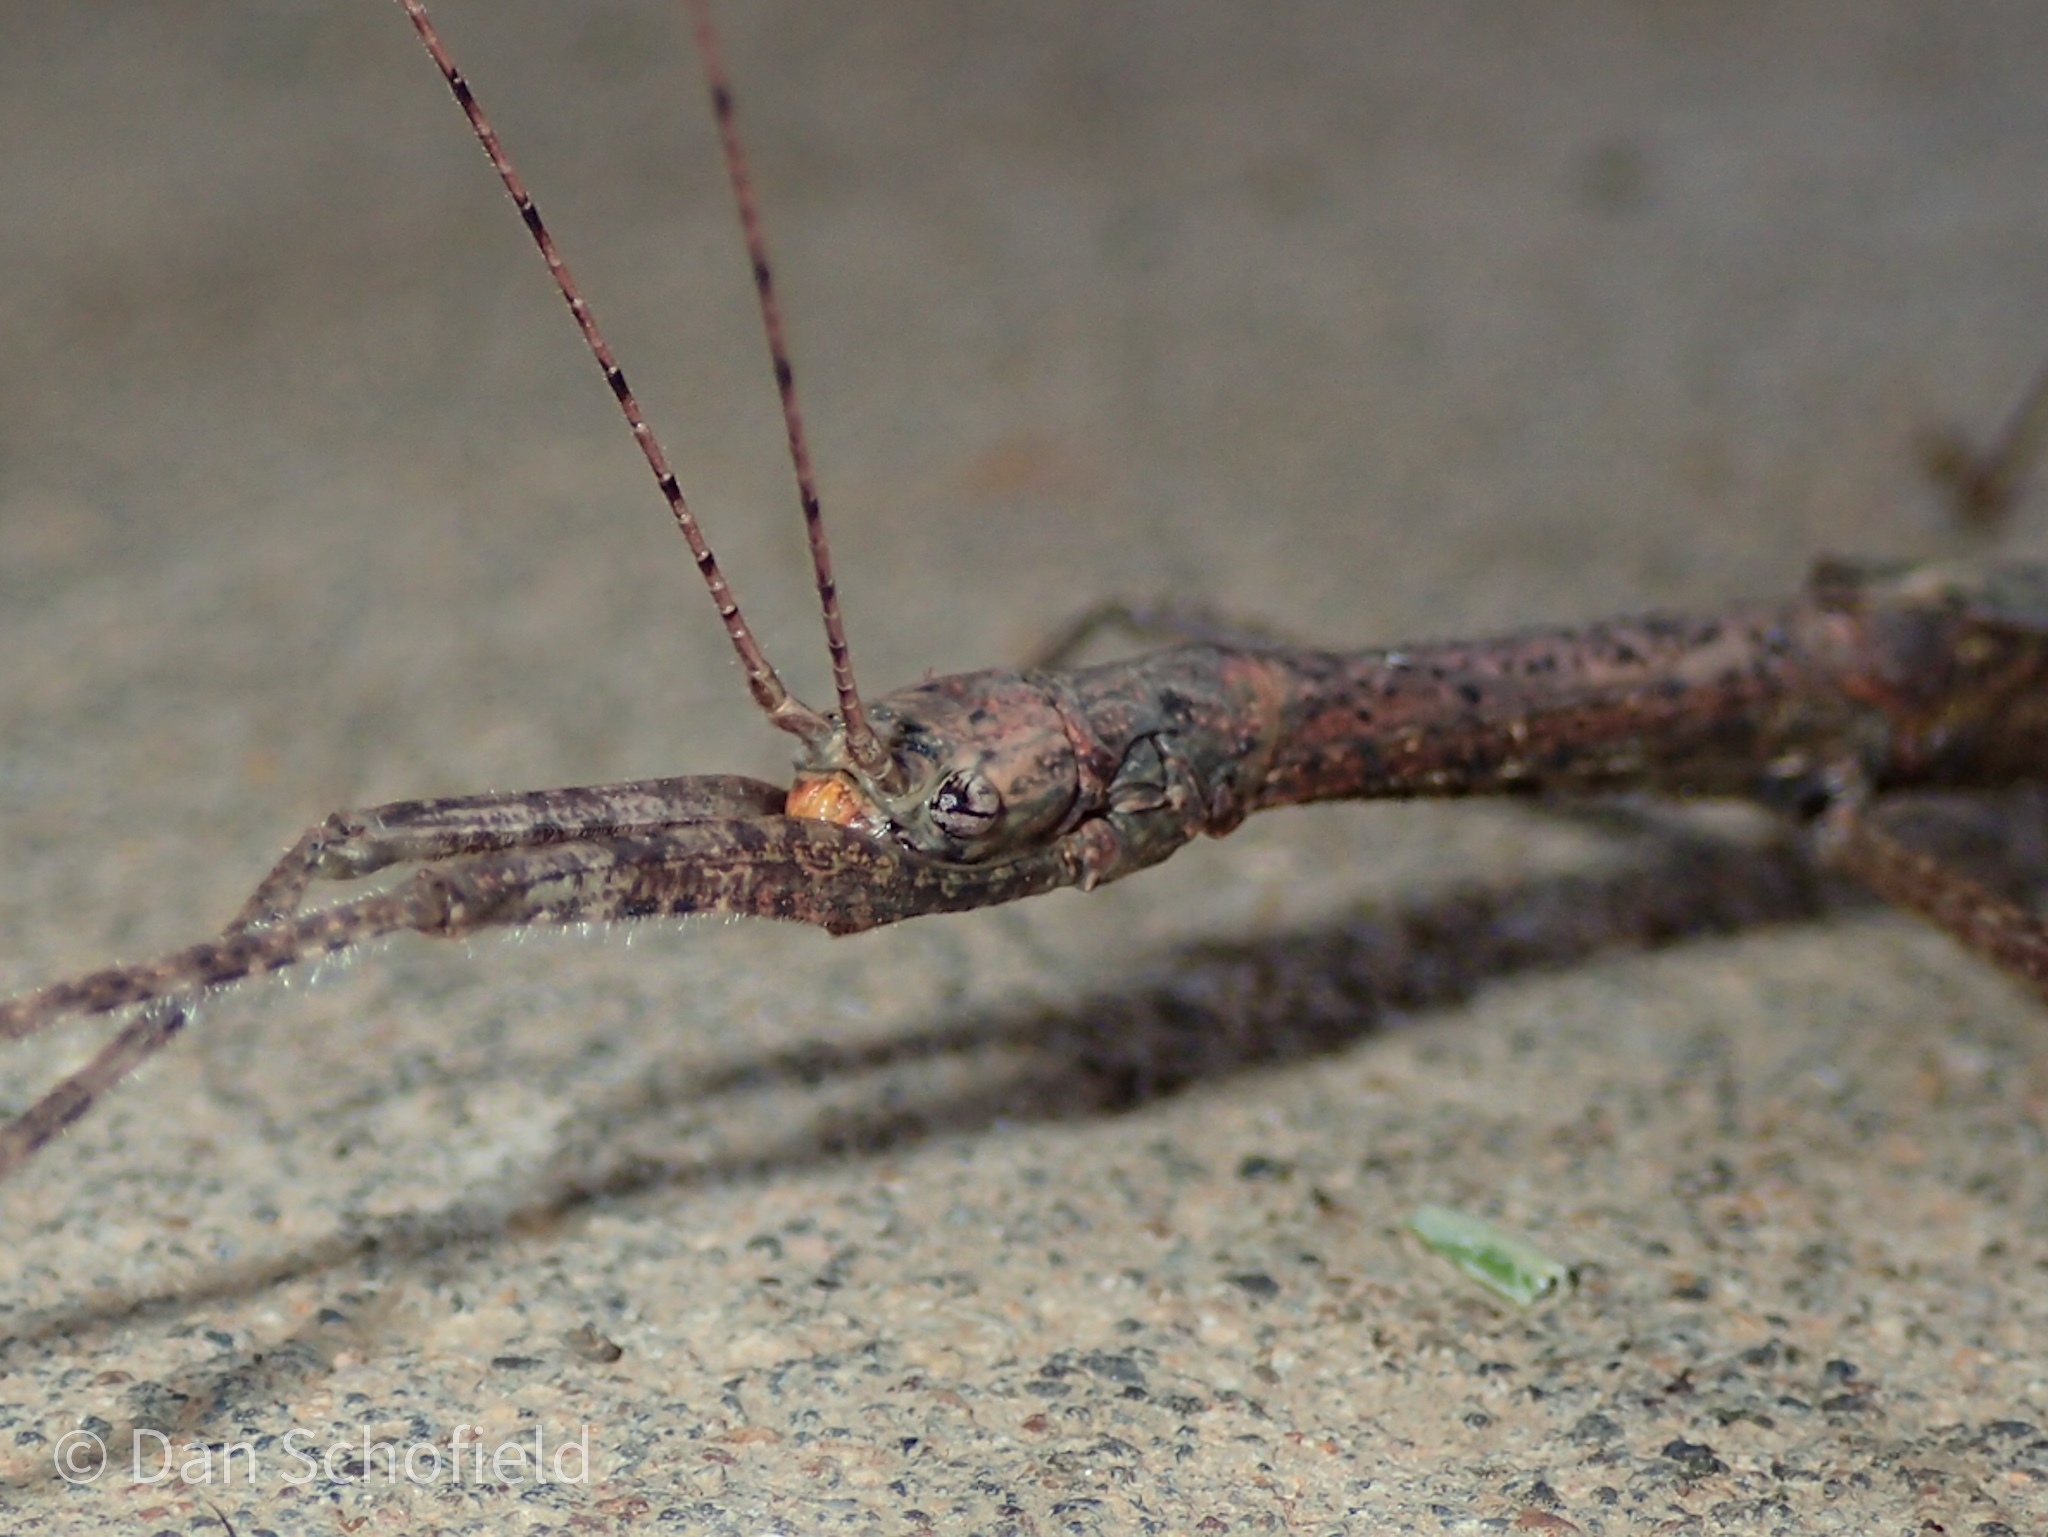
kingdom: Animalia
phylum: Arthropoda
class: Insecta
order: Phasmida
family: Lonchodidae
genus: Scionecra
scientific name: Scionecra agrionina
